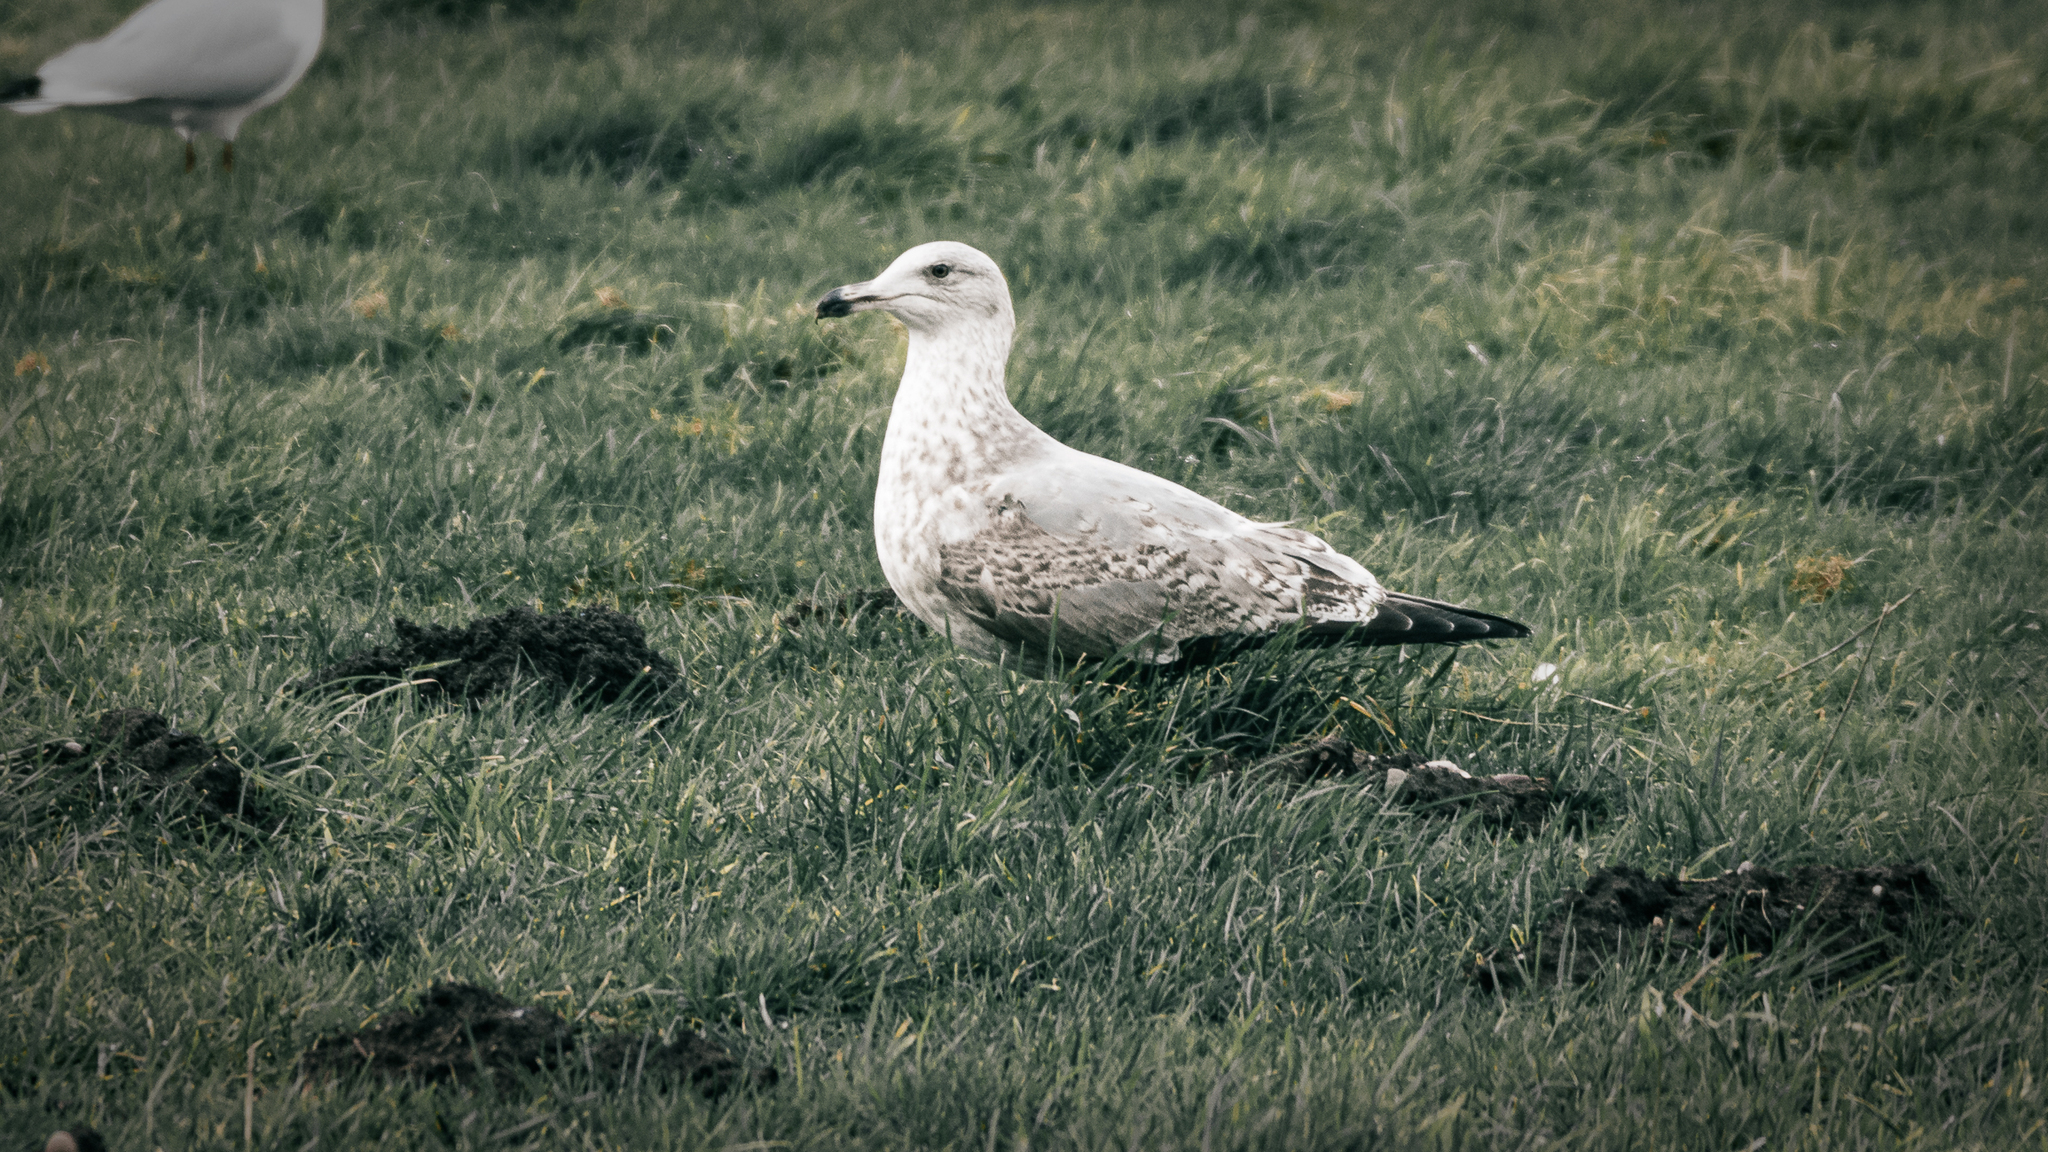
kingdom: Animalia
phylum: Chordata
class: Aves
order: Charadriiformes
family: Laridae
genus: Larus
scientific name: Larus argentatus
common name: Herring gull
